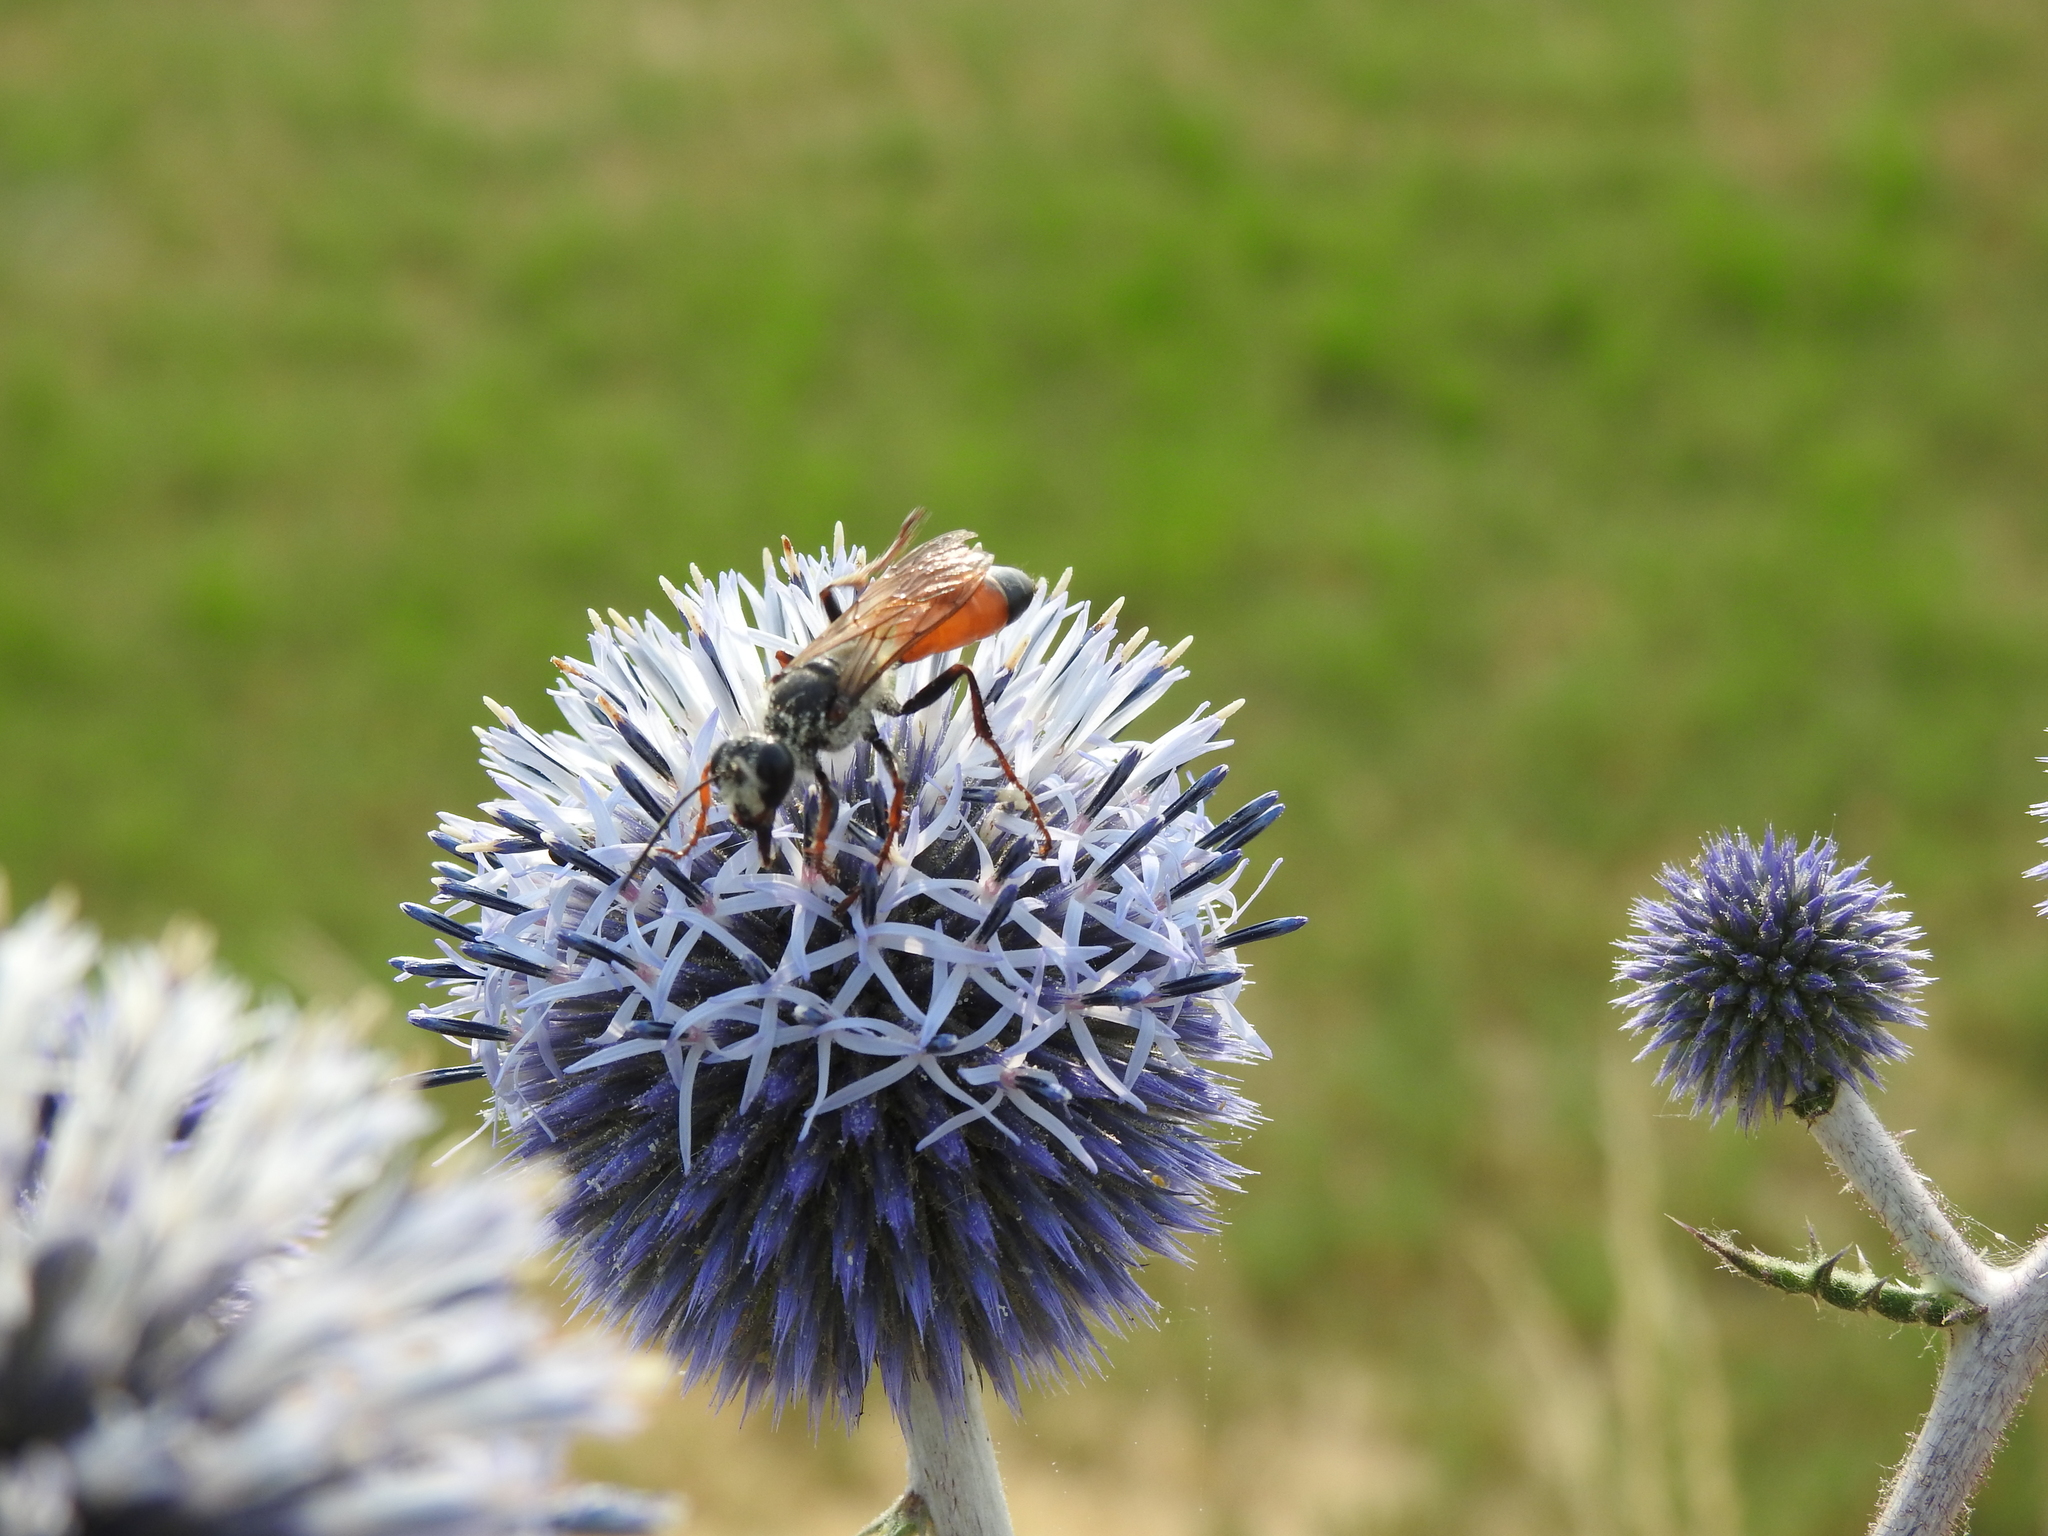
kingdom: Animalia
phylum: Arthropoda
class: Insecta
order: Hymenoptera
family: Sphecidae
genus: Sphex
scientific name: Sphex funerarius
